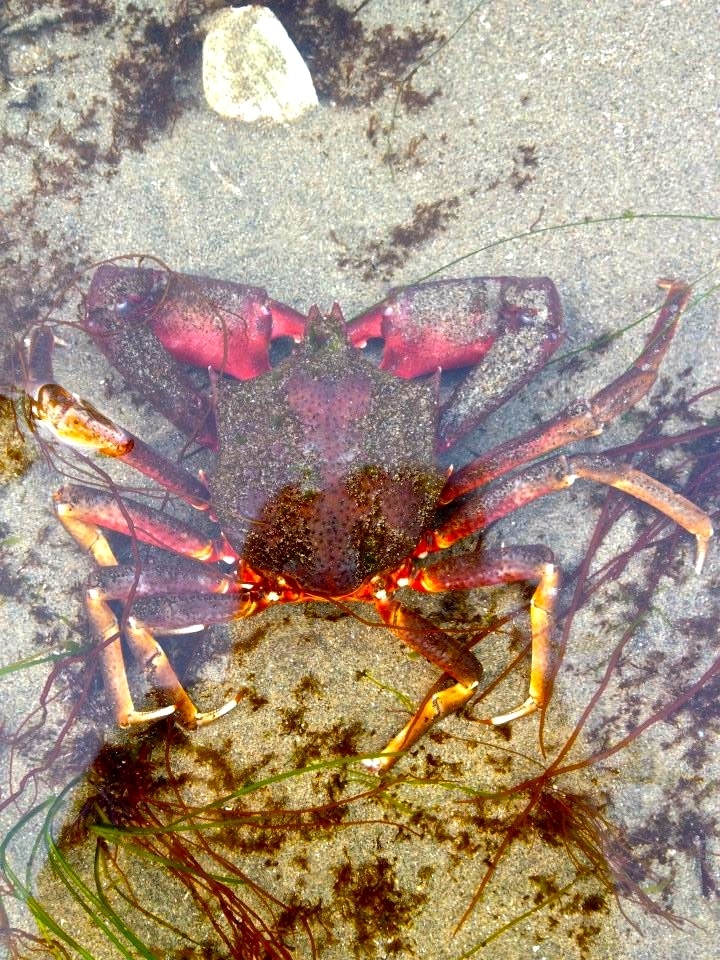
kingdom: Animalia
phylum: Arthropoda
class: Malacostraca
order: Decapoda
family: Epialtidae
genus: Pugettia
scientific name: Pugettia producta
